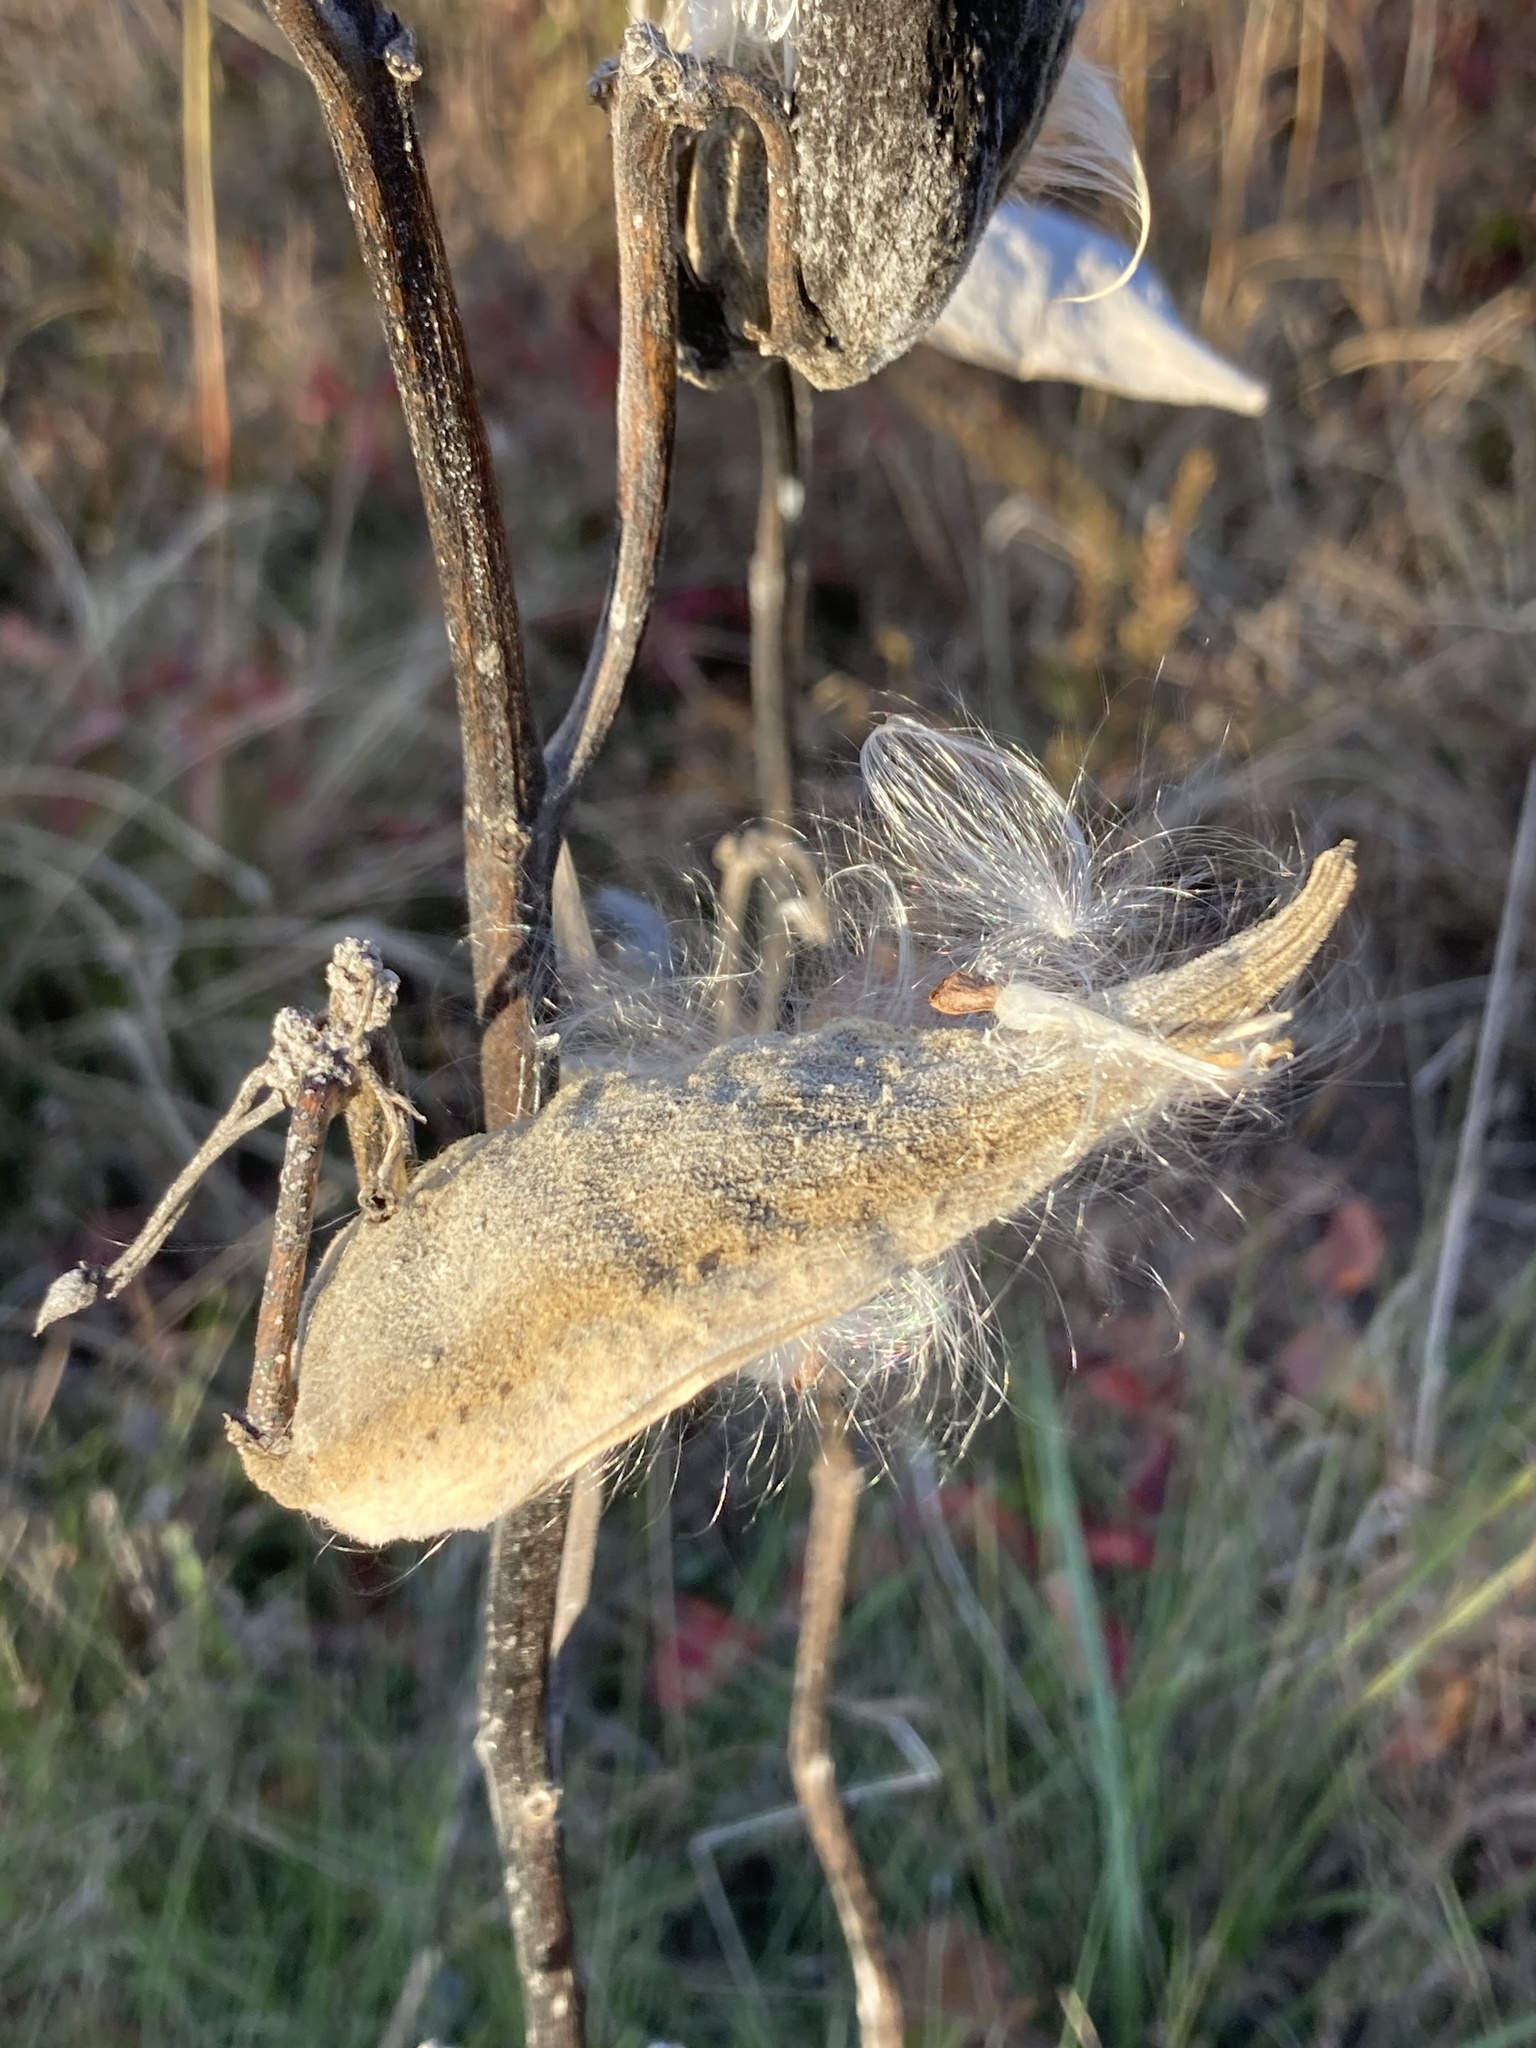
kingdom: Plantae
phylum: Tracheophyta
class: Magnoliopsida
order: Gentianales
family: Apocynaceae
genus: Asclepias
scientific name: Asclepias syriaca
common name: Common milkweed
